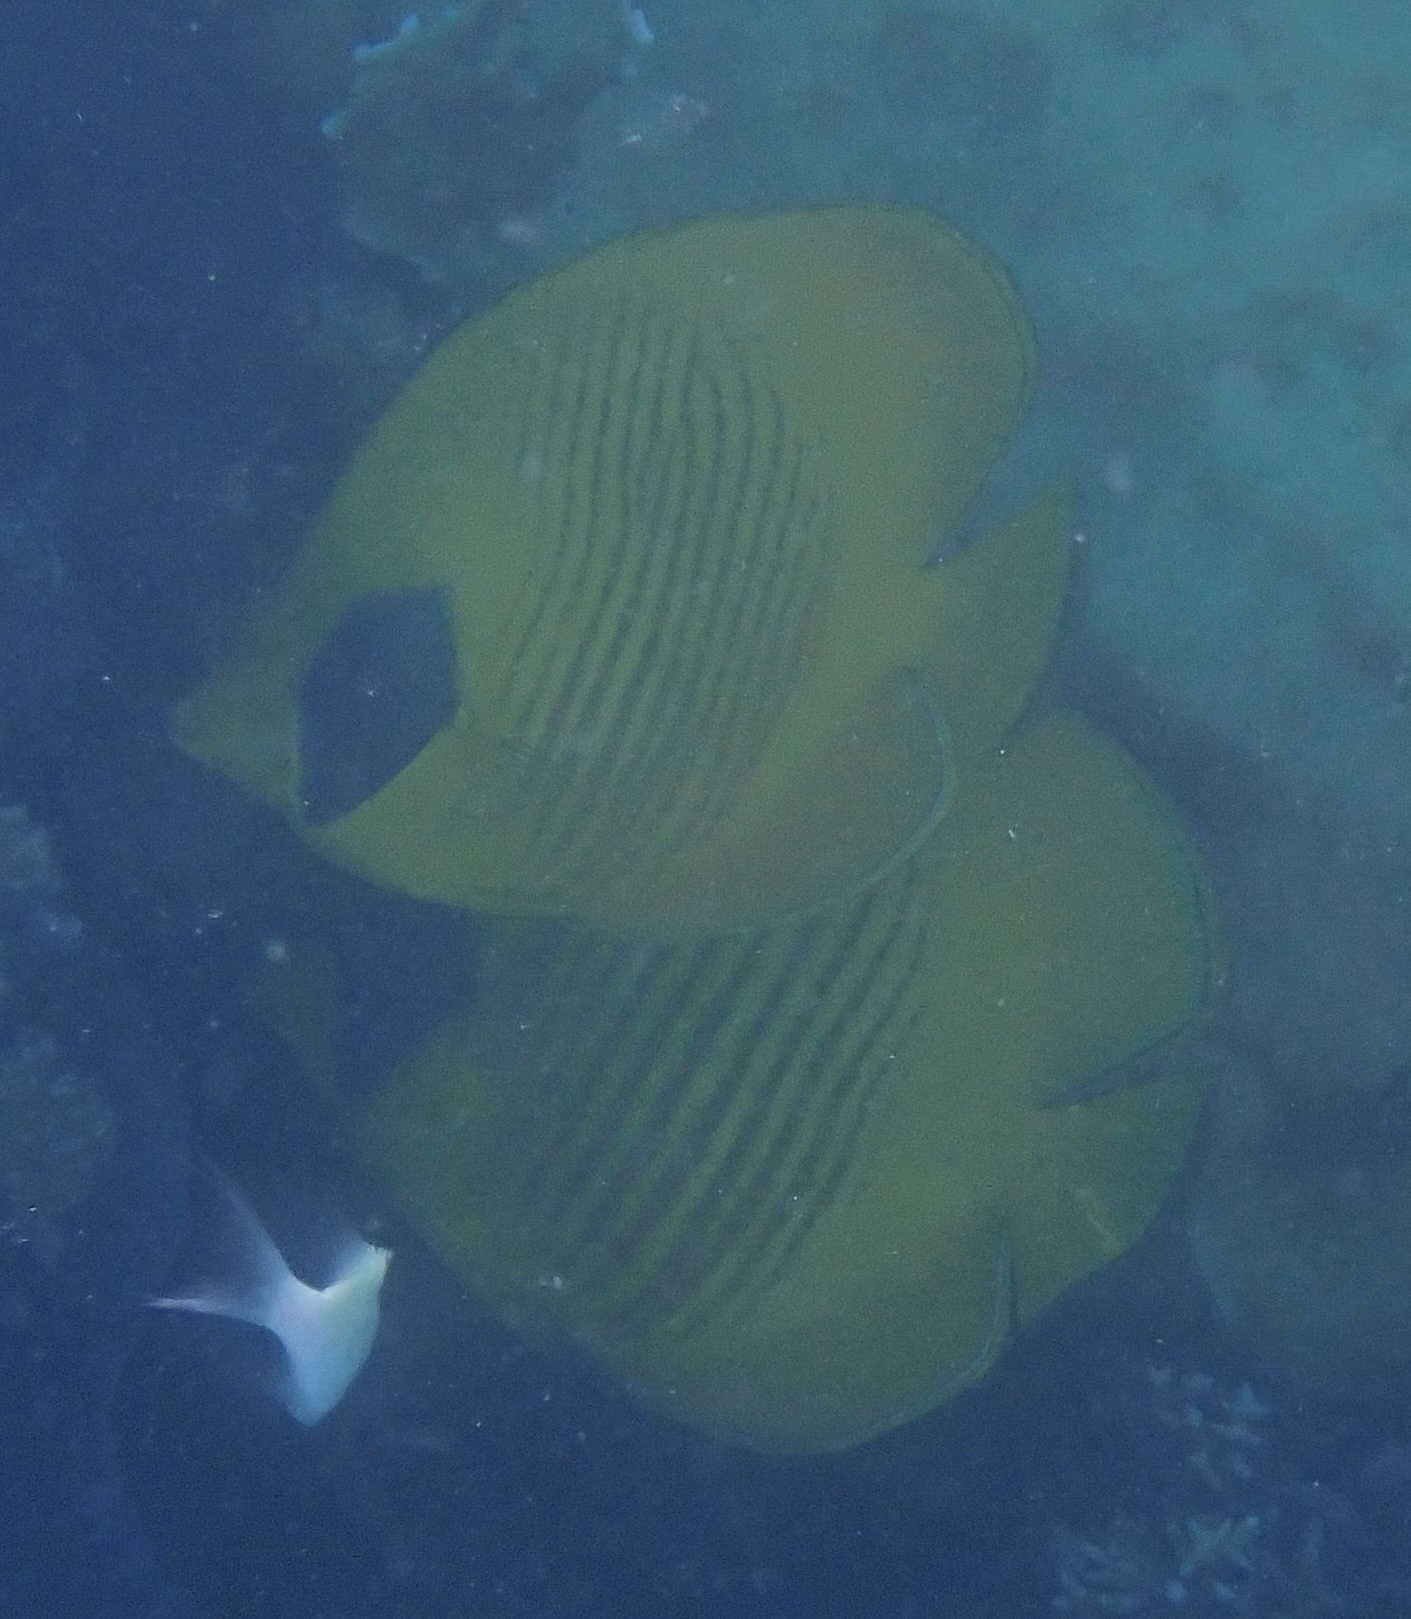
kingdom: Animalia
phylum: Chordata
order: Perciformes
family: Chaetodontidae
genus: Chaetodon
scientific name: Chaetodon semilarvatus
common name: Golden butterflyfish
